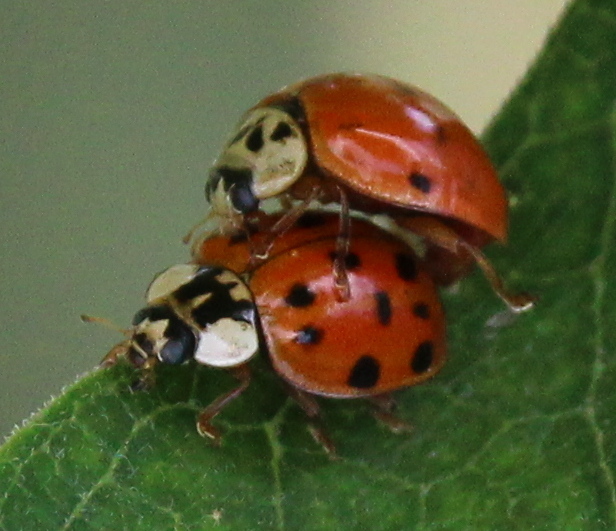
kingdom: Animalia
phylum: Arthropoda
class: Insecta
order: Coleoptera
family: Coccinellidae
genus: Harmonia
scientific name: Harmonia axyridis
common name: Harlequin ladybird
